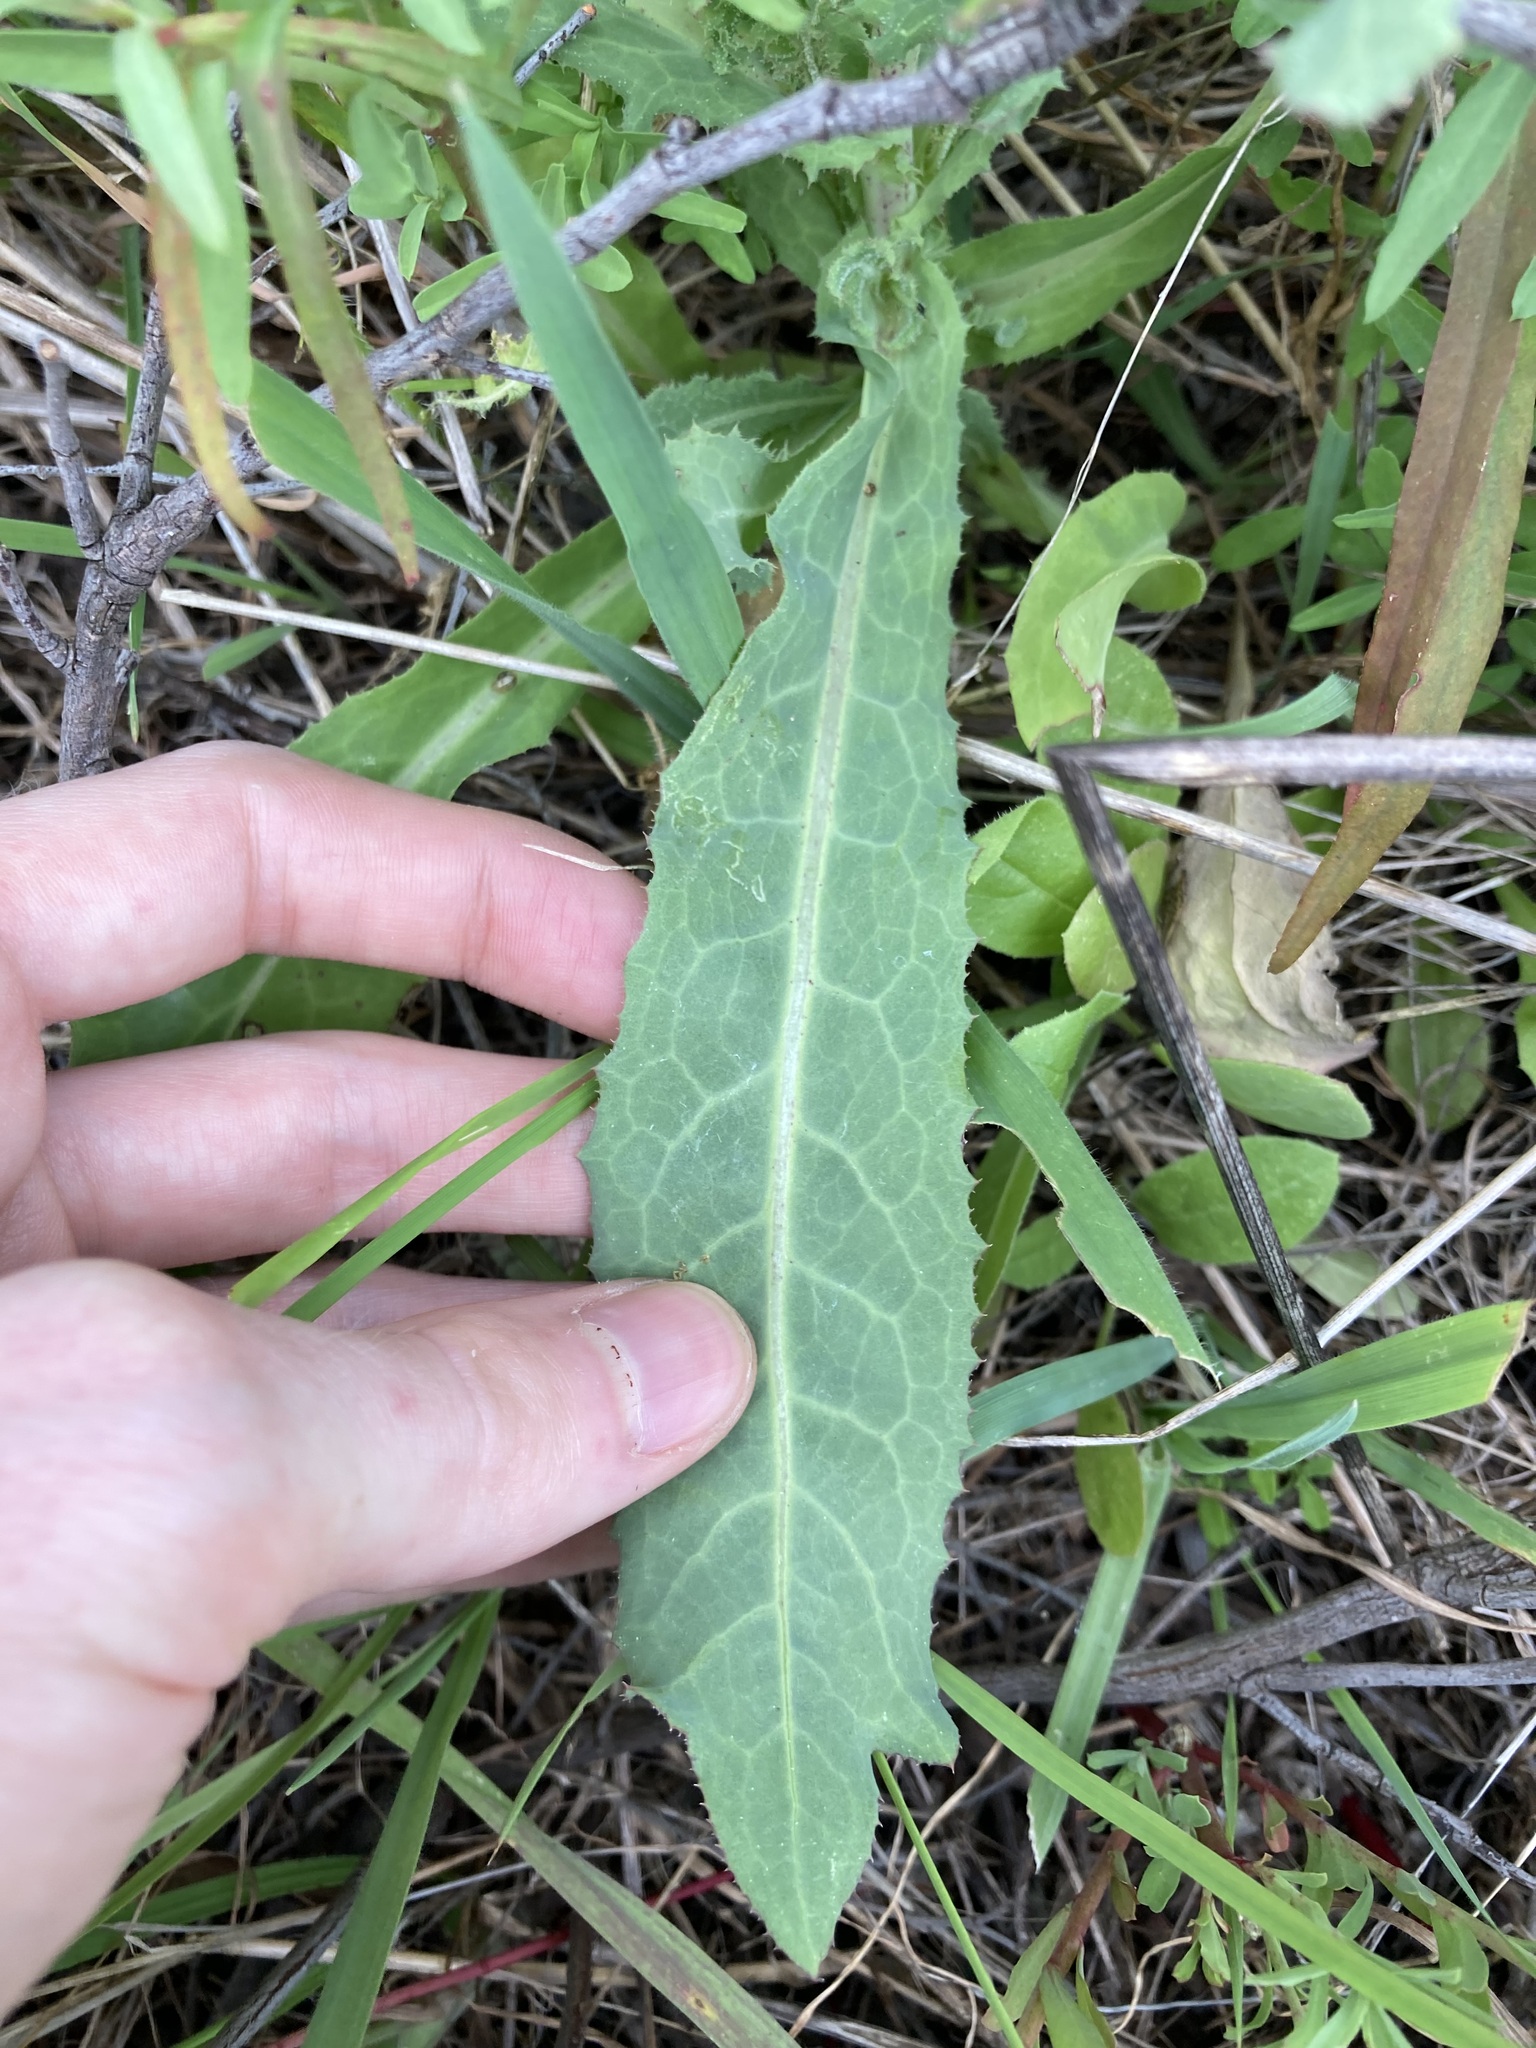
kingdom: Plantae
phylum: Tracheophyta
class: Magnoliopsida
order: Asterales
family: Asteraceae
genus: Reichardia
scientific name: Reichardia tingitana
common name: Reichardia
